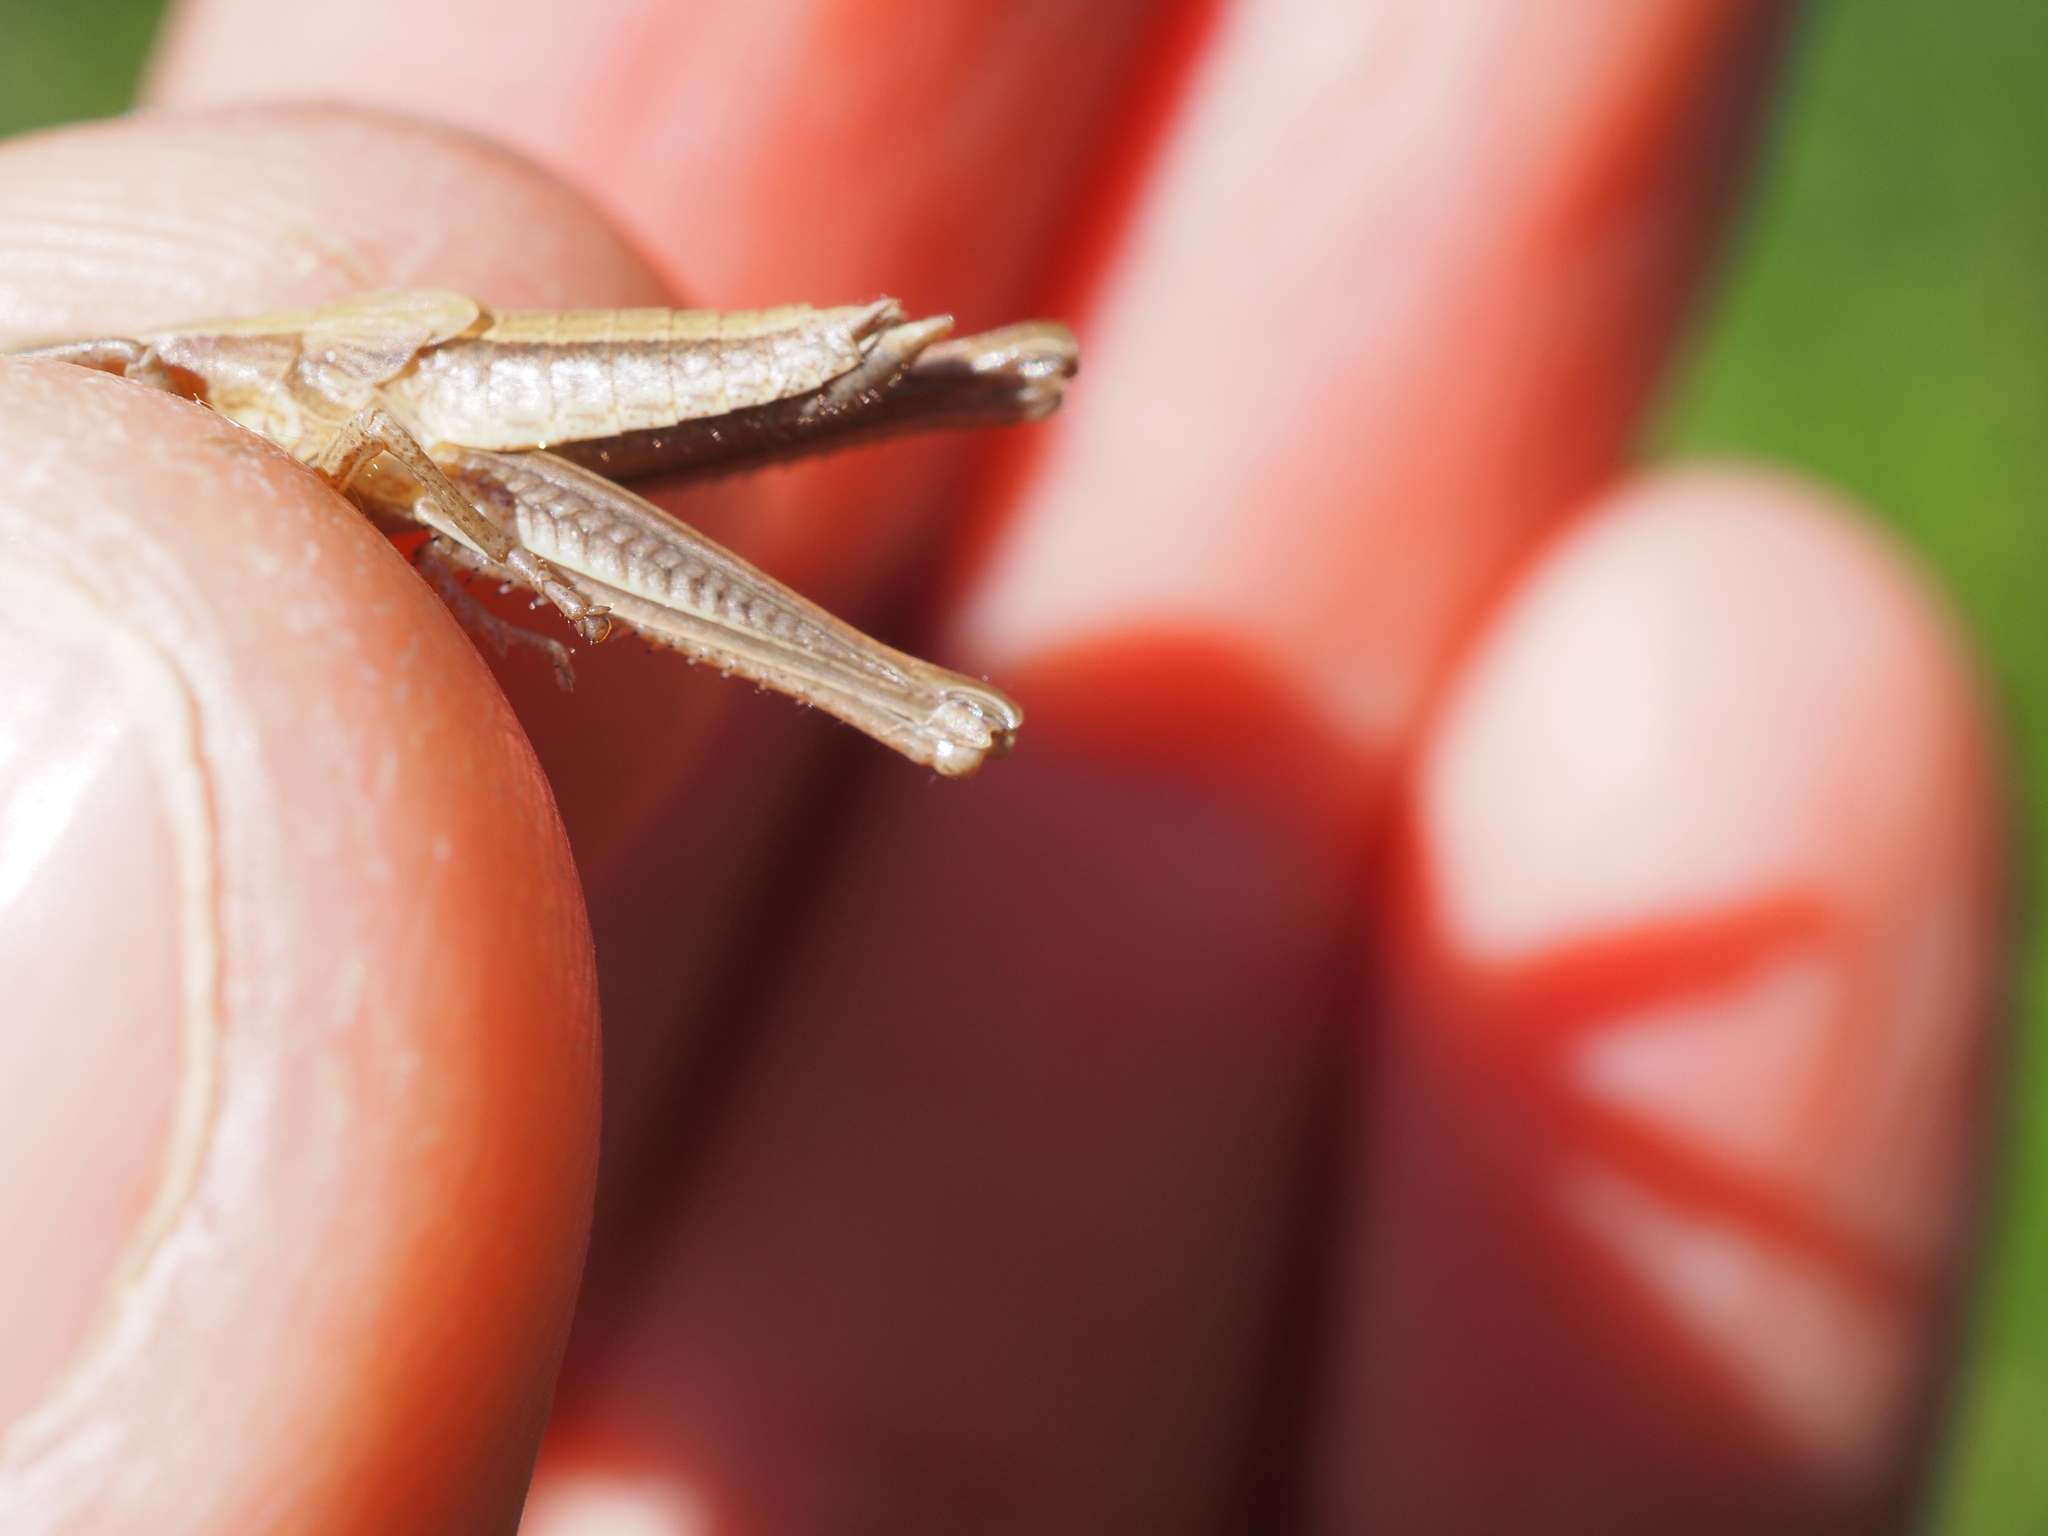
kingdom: Animalia
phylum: Arthropoda
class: Insecta
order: Orthoptera
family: Acrididae
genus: Chrysochraon
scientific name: Chrysochraon dispar
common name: Large gold grasshopper
